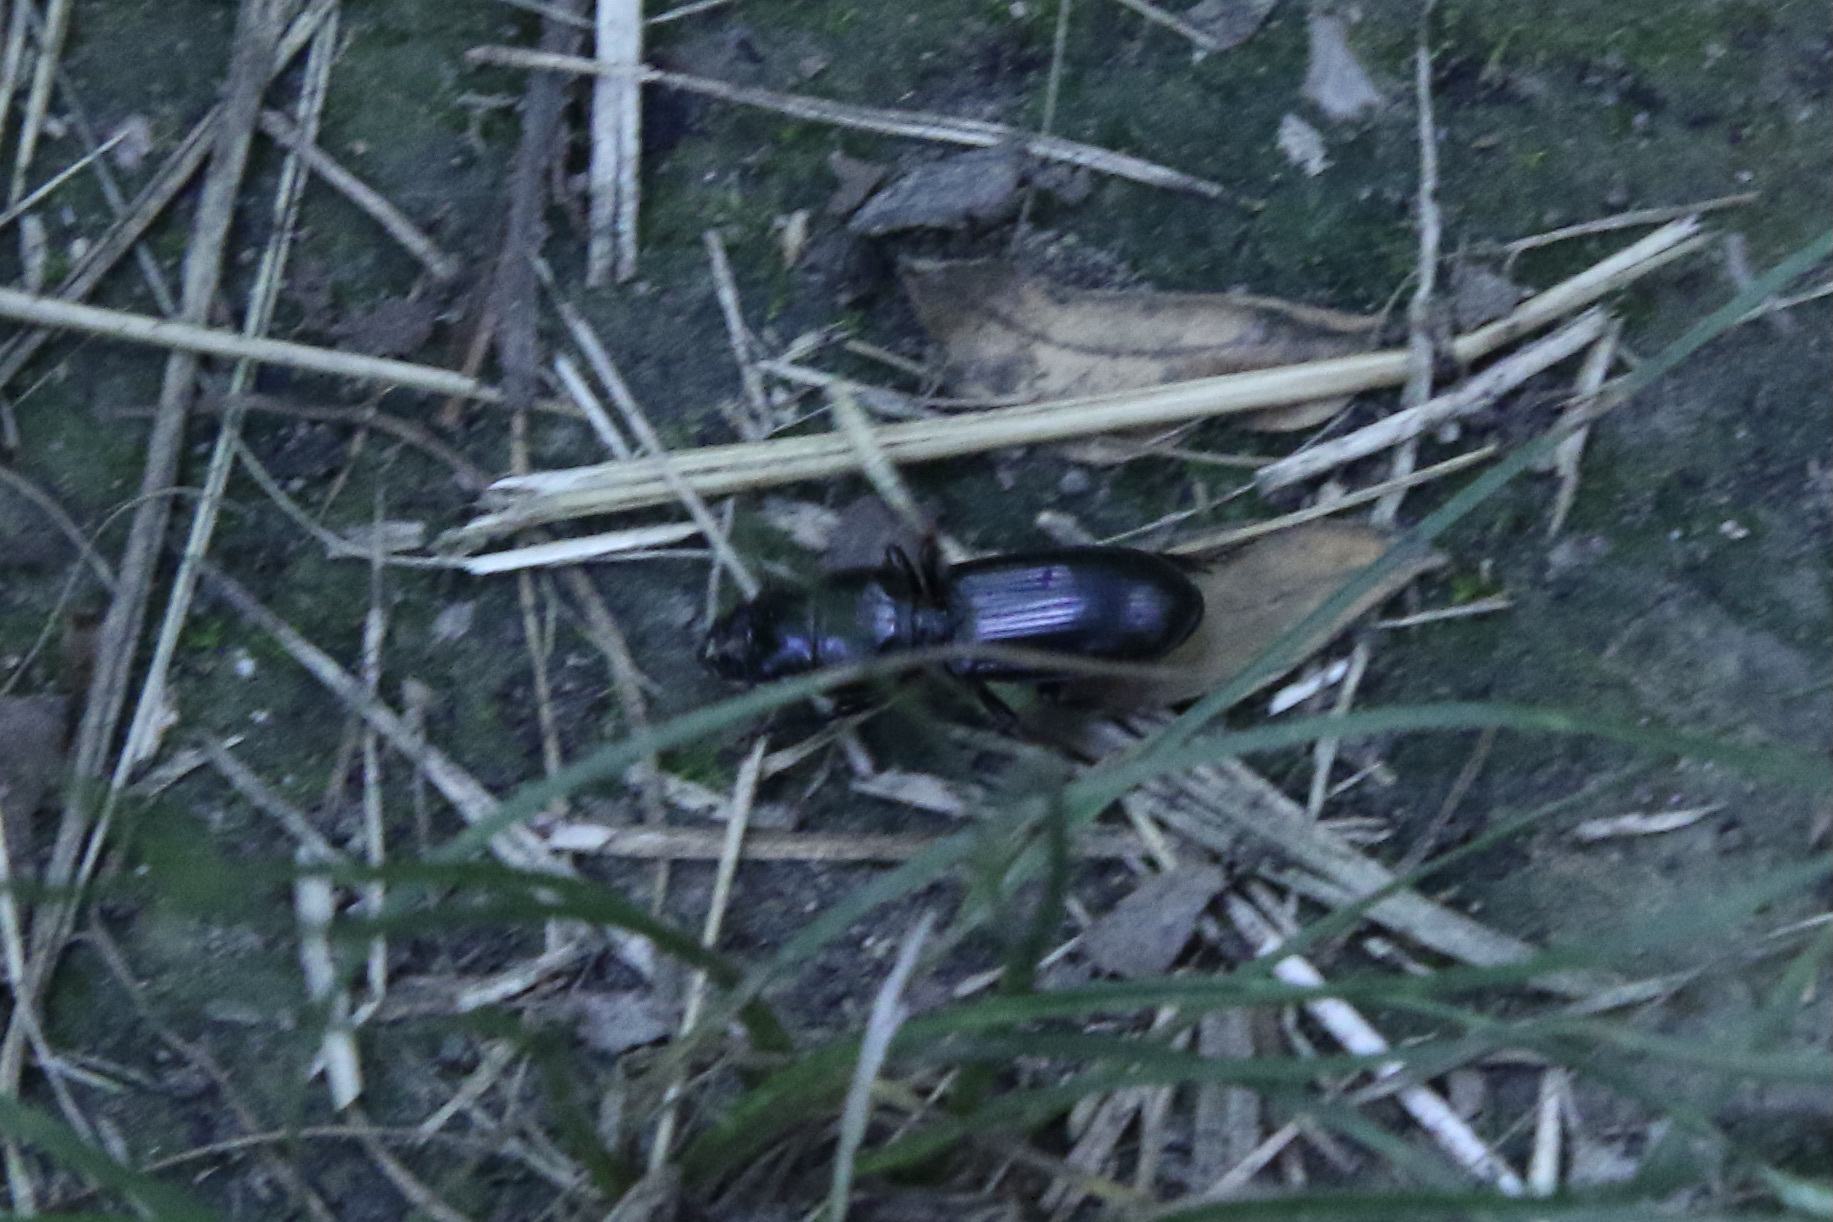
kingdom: Animalia
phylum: Arthropoda
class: Insecta
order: Coleoptera
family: Carabidae
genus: Scarites
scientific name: Scarites subterraneus
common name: Big-headed ground beetle
